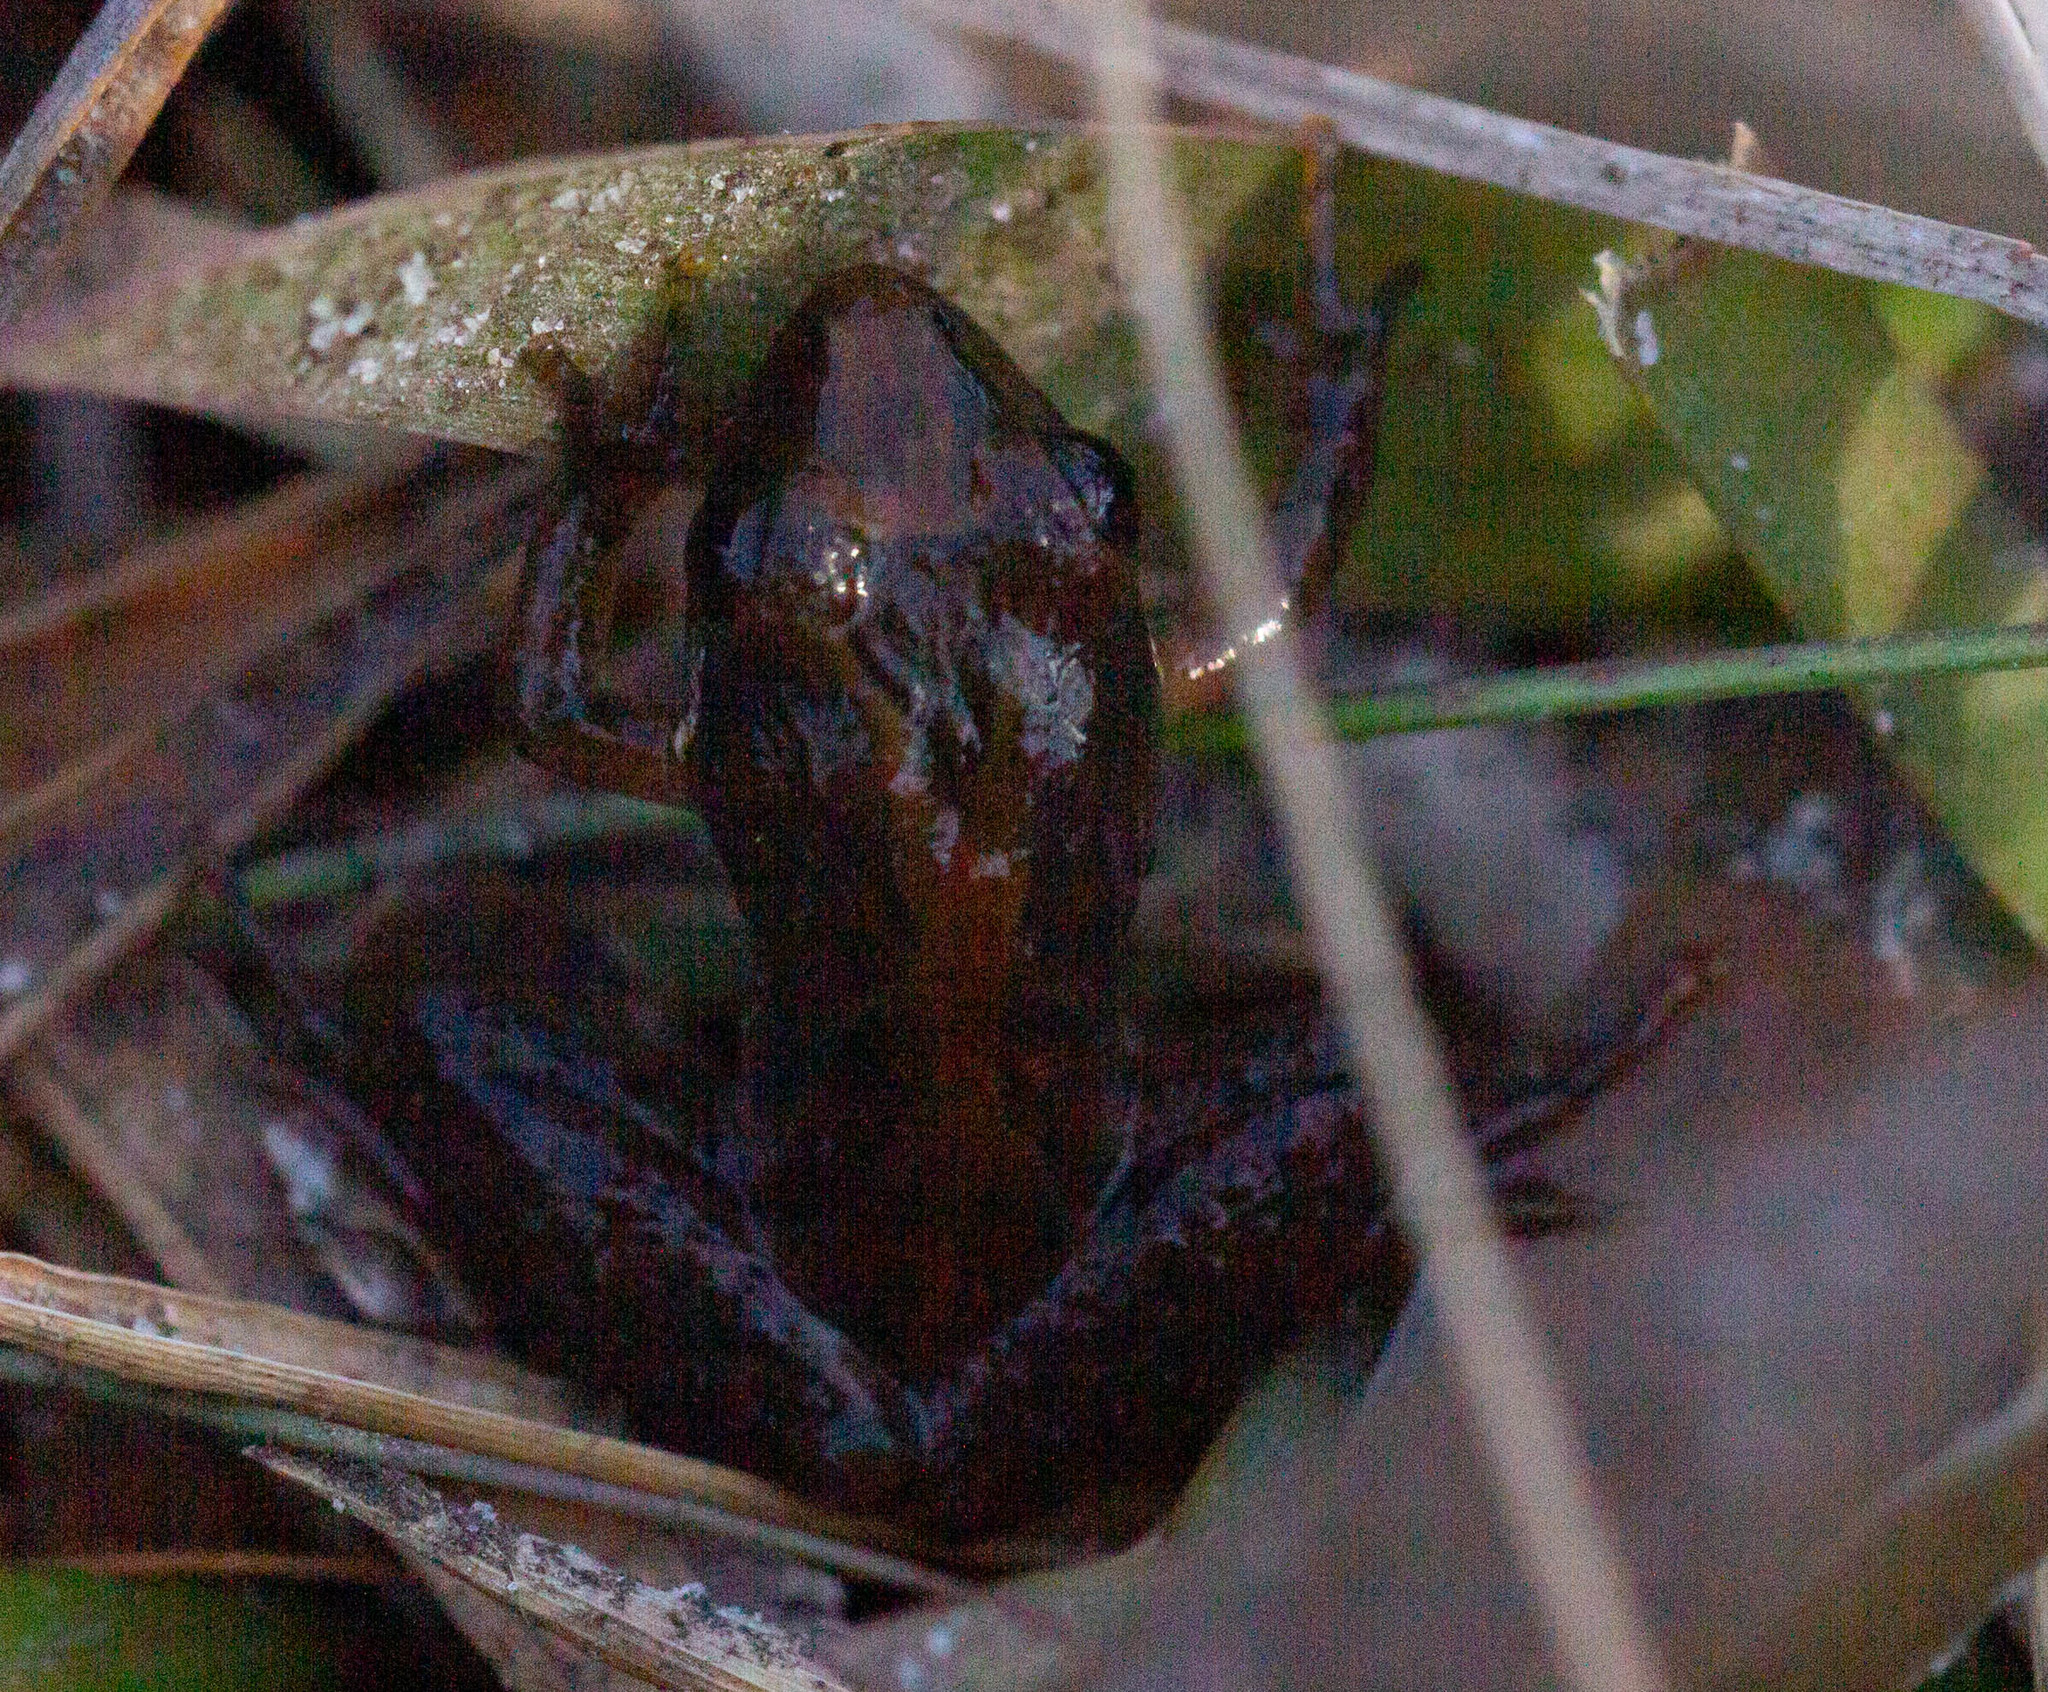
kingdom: Animalia
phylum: Chordata
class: Amphibia
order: Anura
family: Hylidae
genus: Acris
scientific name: Acris gryllus
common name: Southern cricket frog
